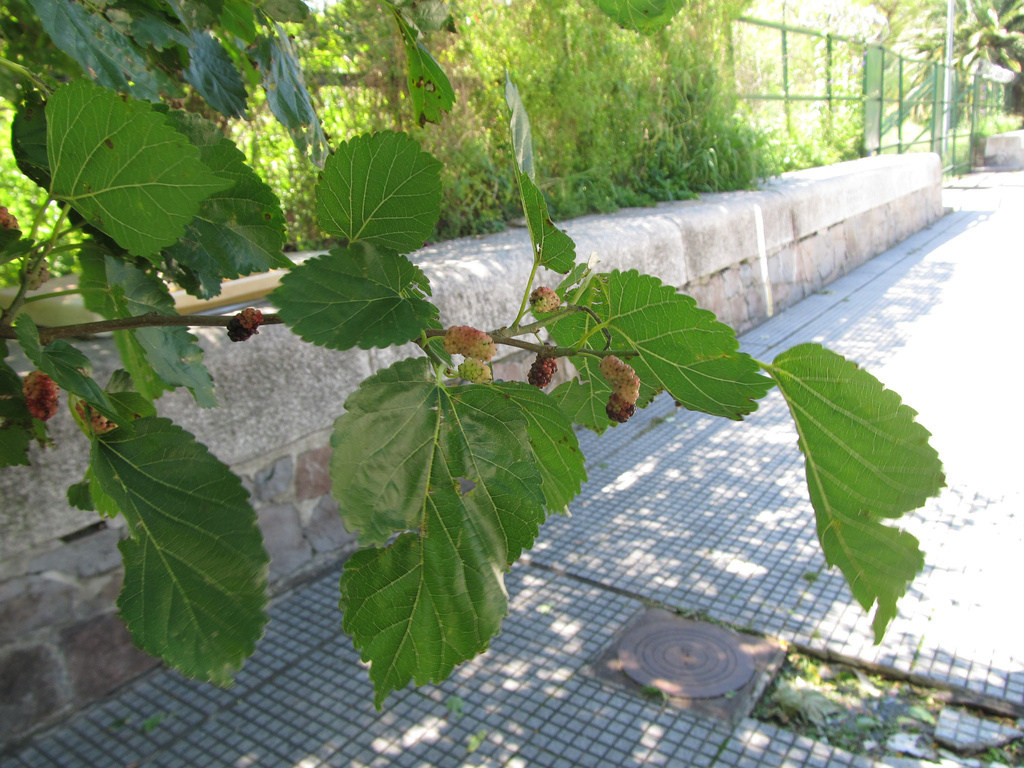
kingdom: Plantae
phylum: Tracheophyta
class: Magnoliopsida
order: Rosales
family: Moraceae
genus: Morus
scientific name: Morus alba
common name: White mulberry
